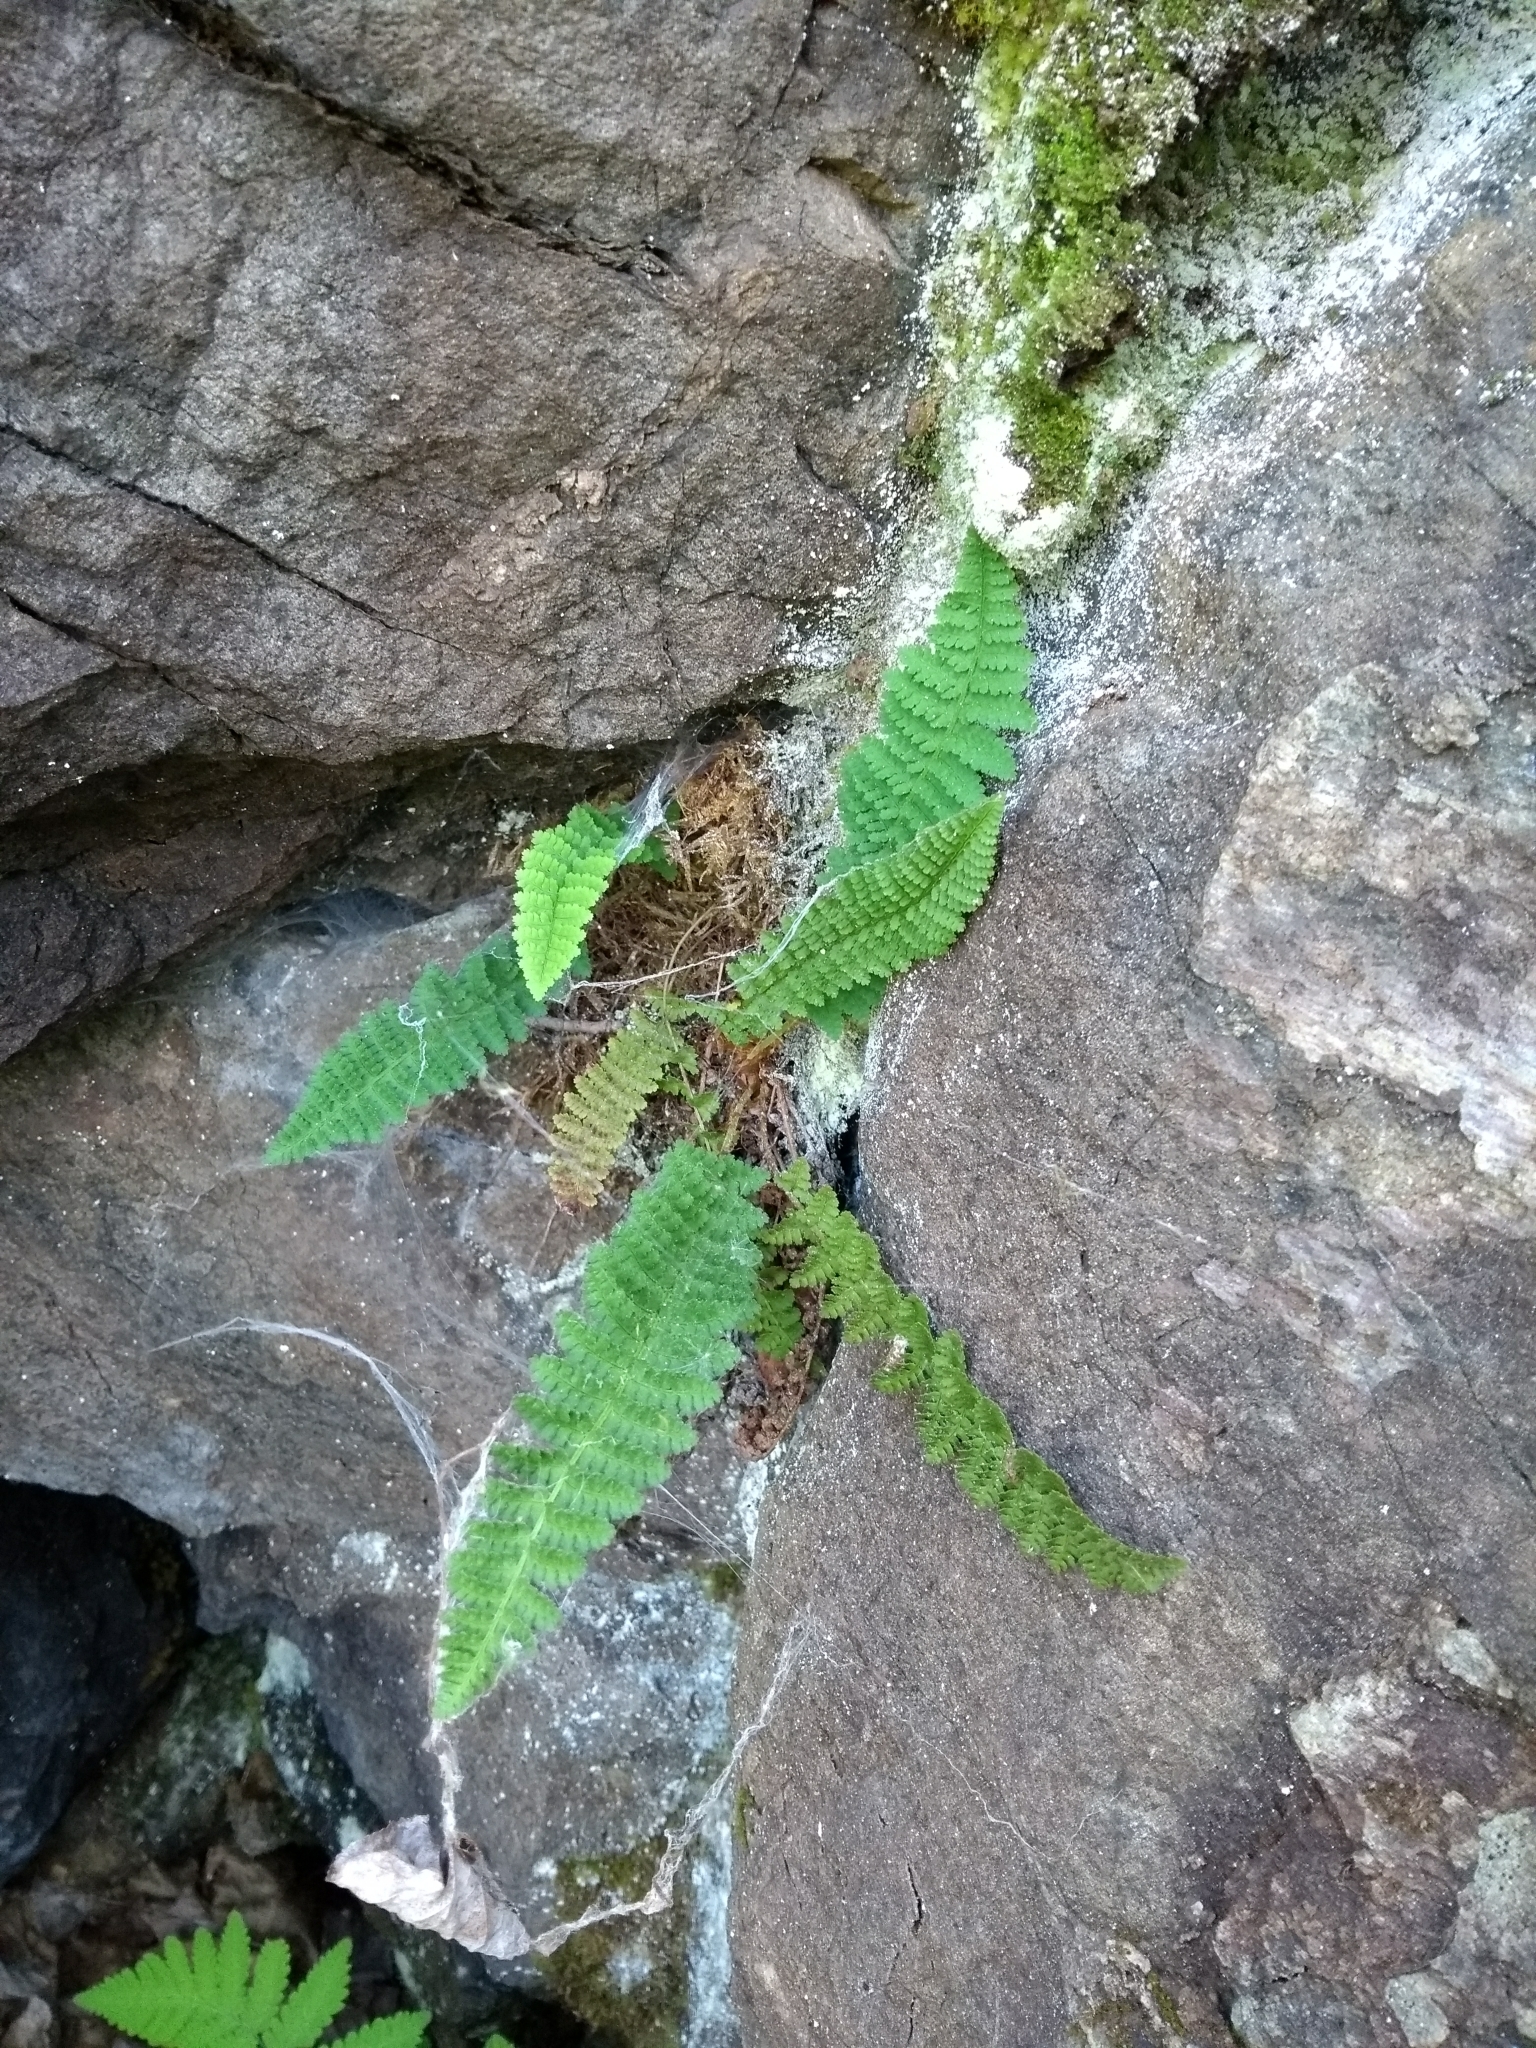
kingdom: Plantae
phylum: Tracheophyta
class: Polypodiopsida
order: Polypodiales
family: Dryopteridaceae
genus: Dryopteris
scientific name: Dryopteris fragrans
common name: Fragrant wood fern
